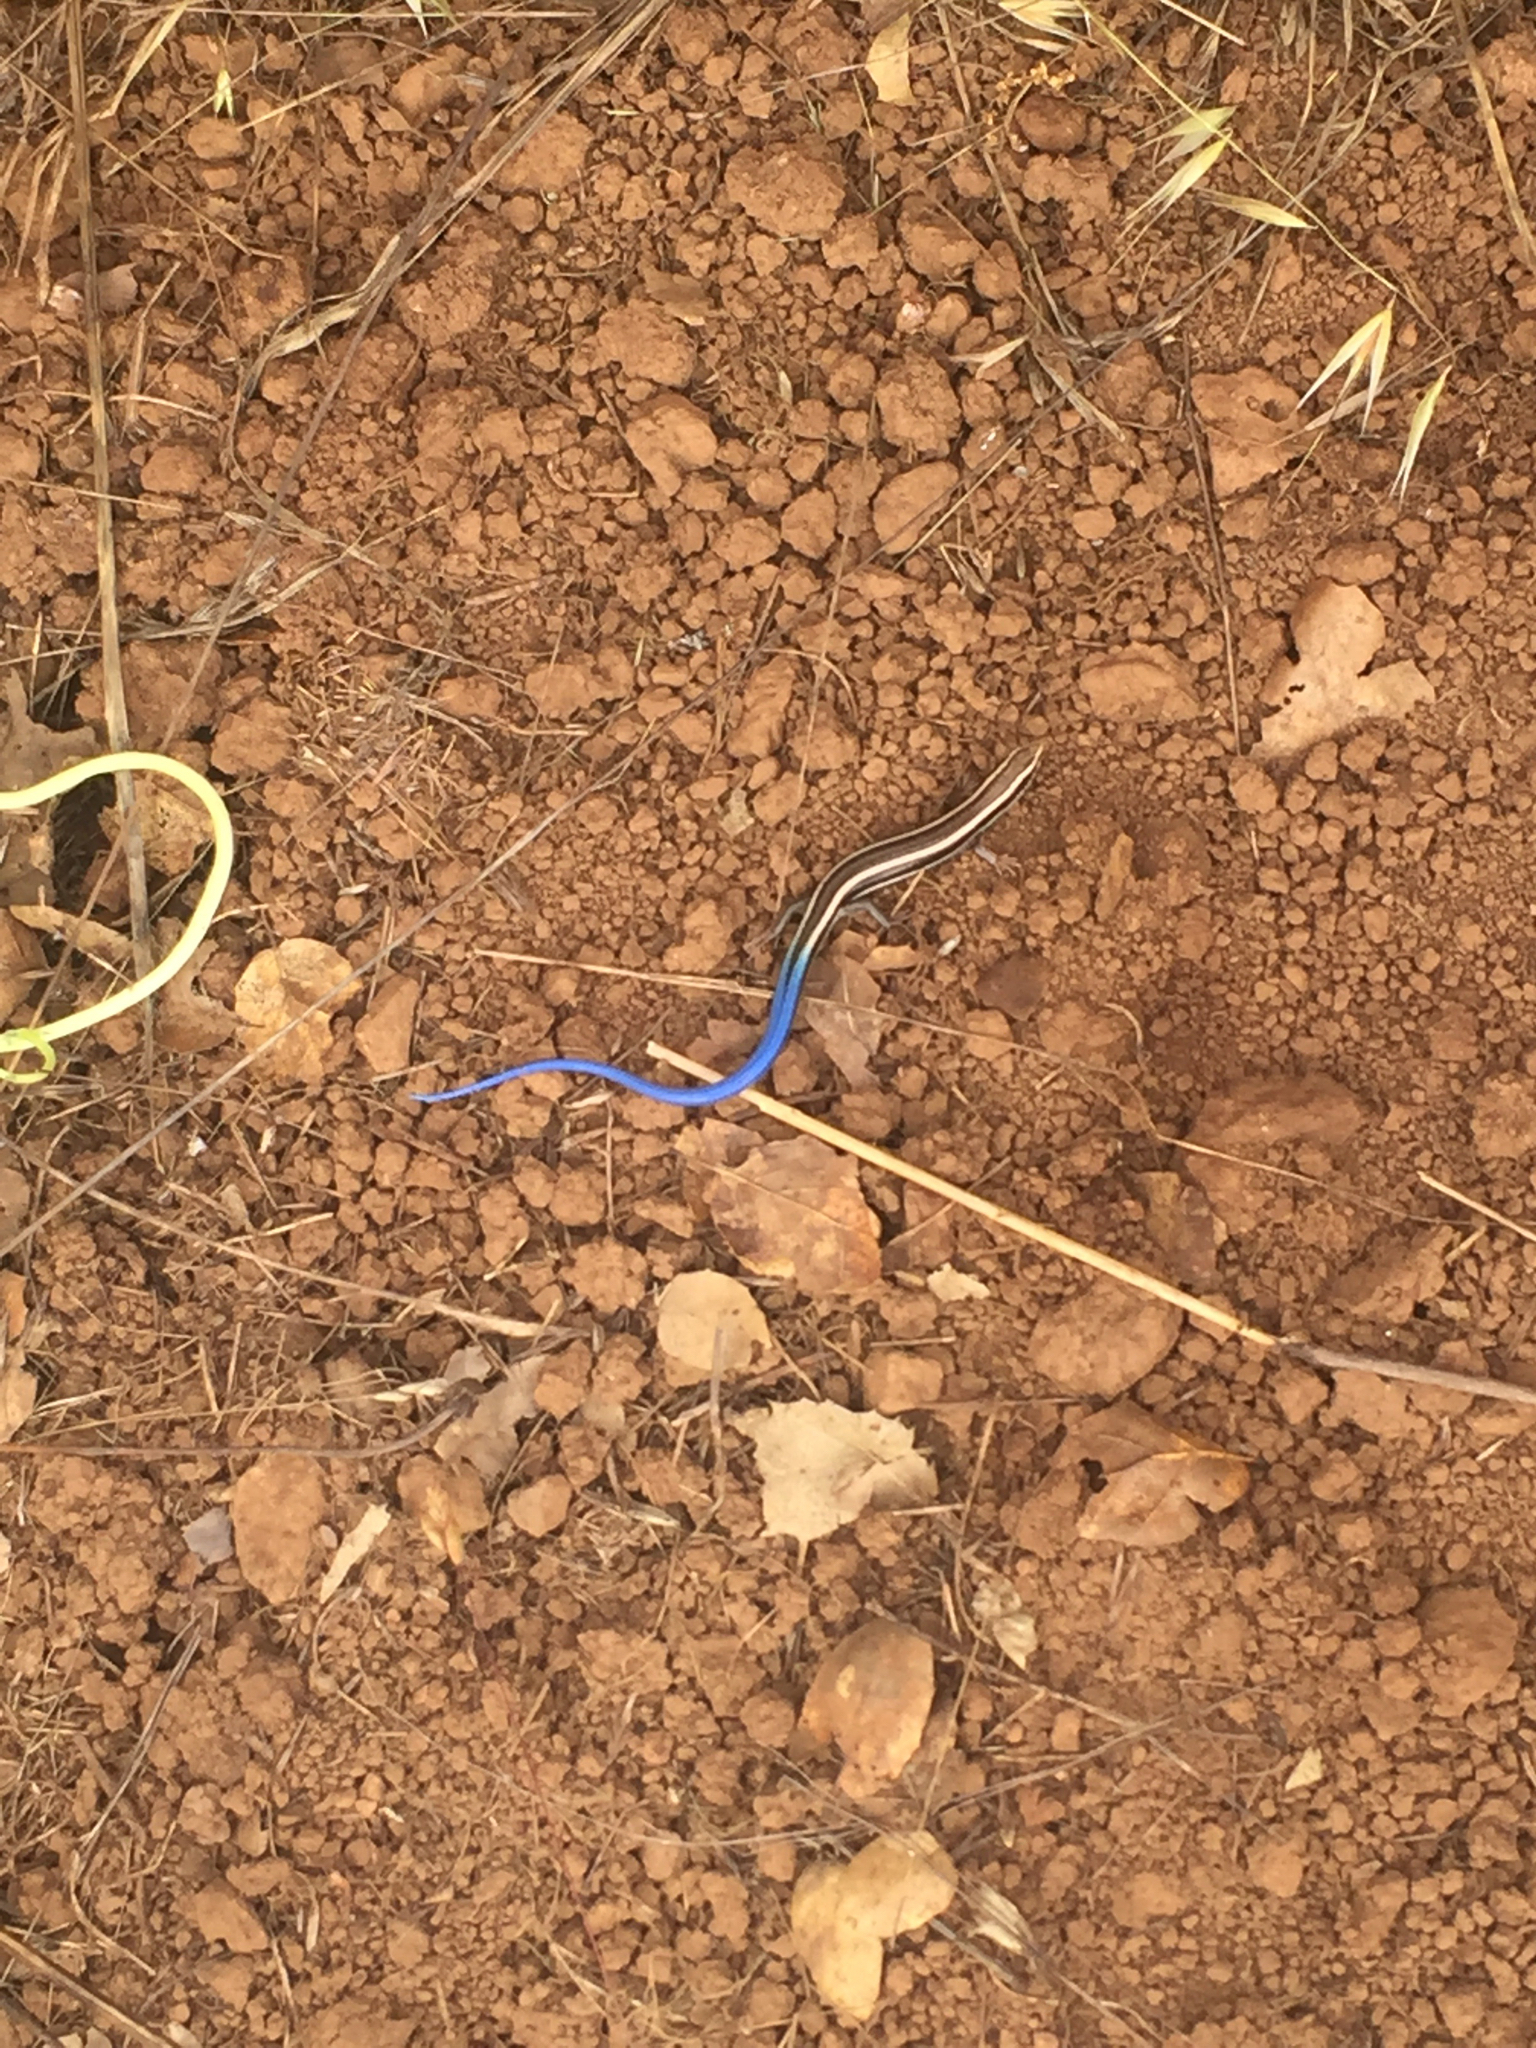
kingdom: Animalia
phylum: Chordata
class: Squamata
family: Scincidae
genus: Plestiodon
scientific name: Plestiodon skiltonianus
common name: Coronado island skink [interparietalis]
